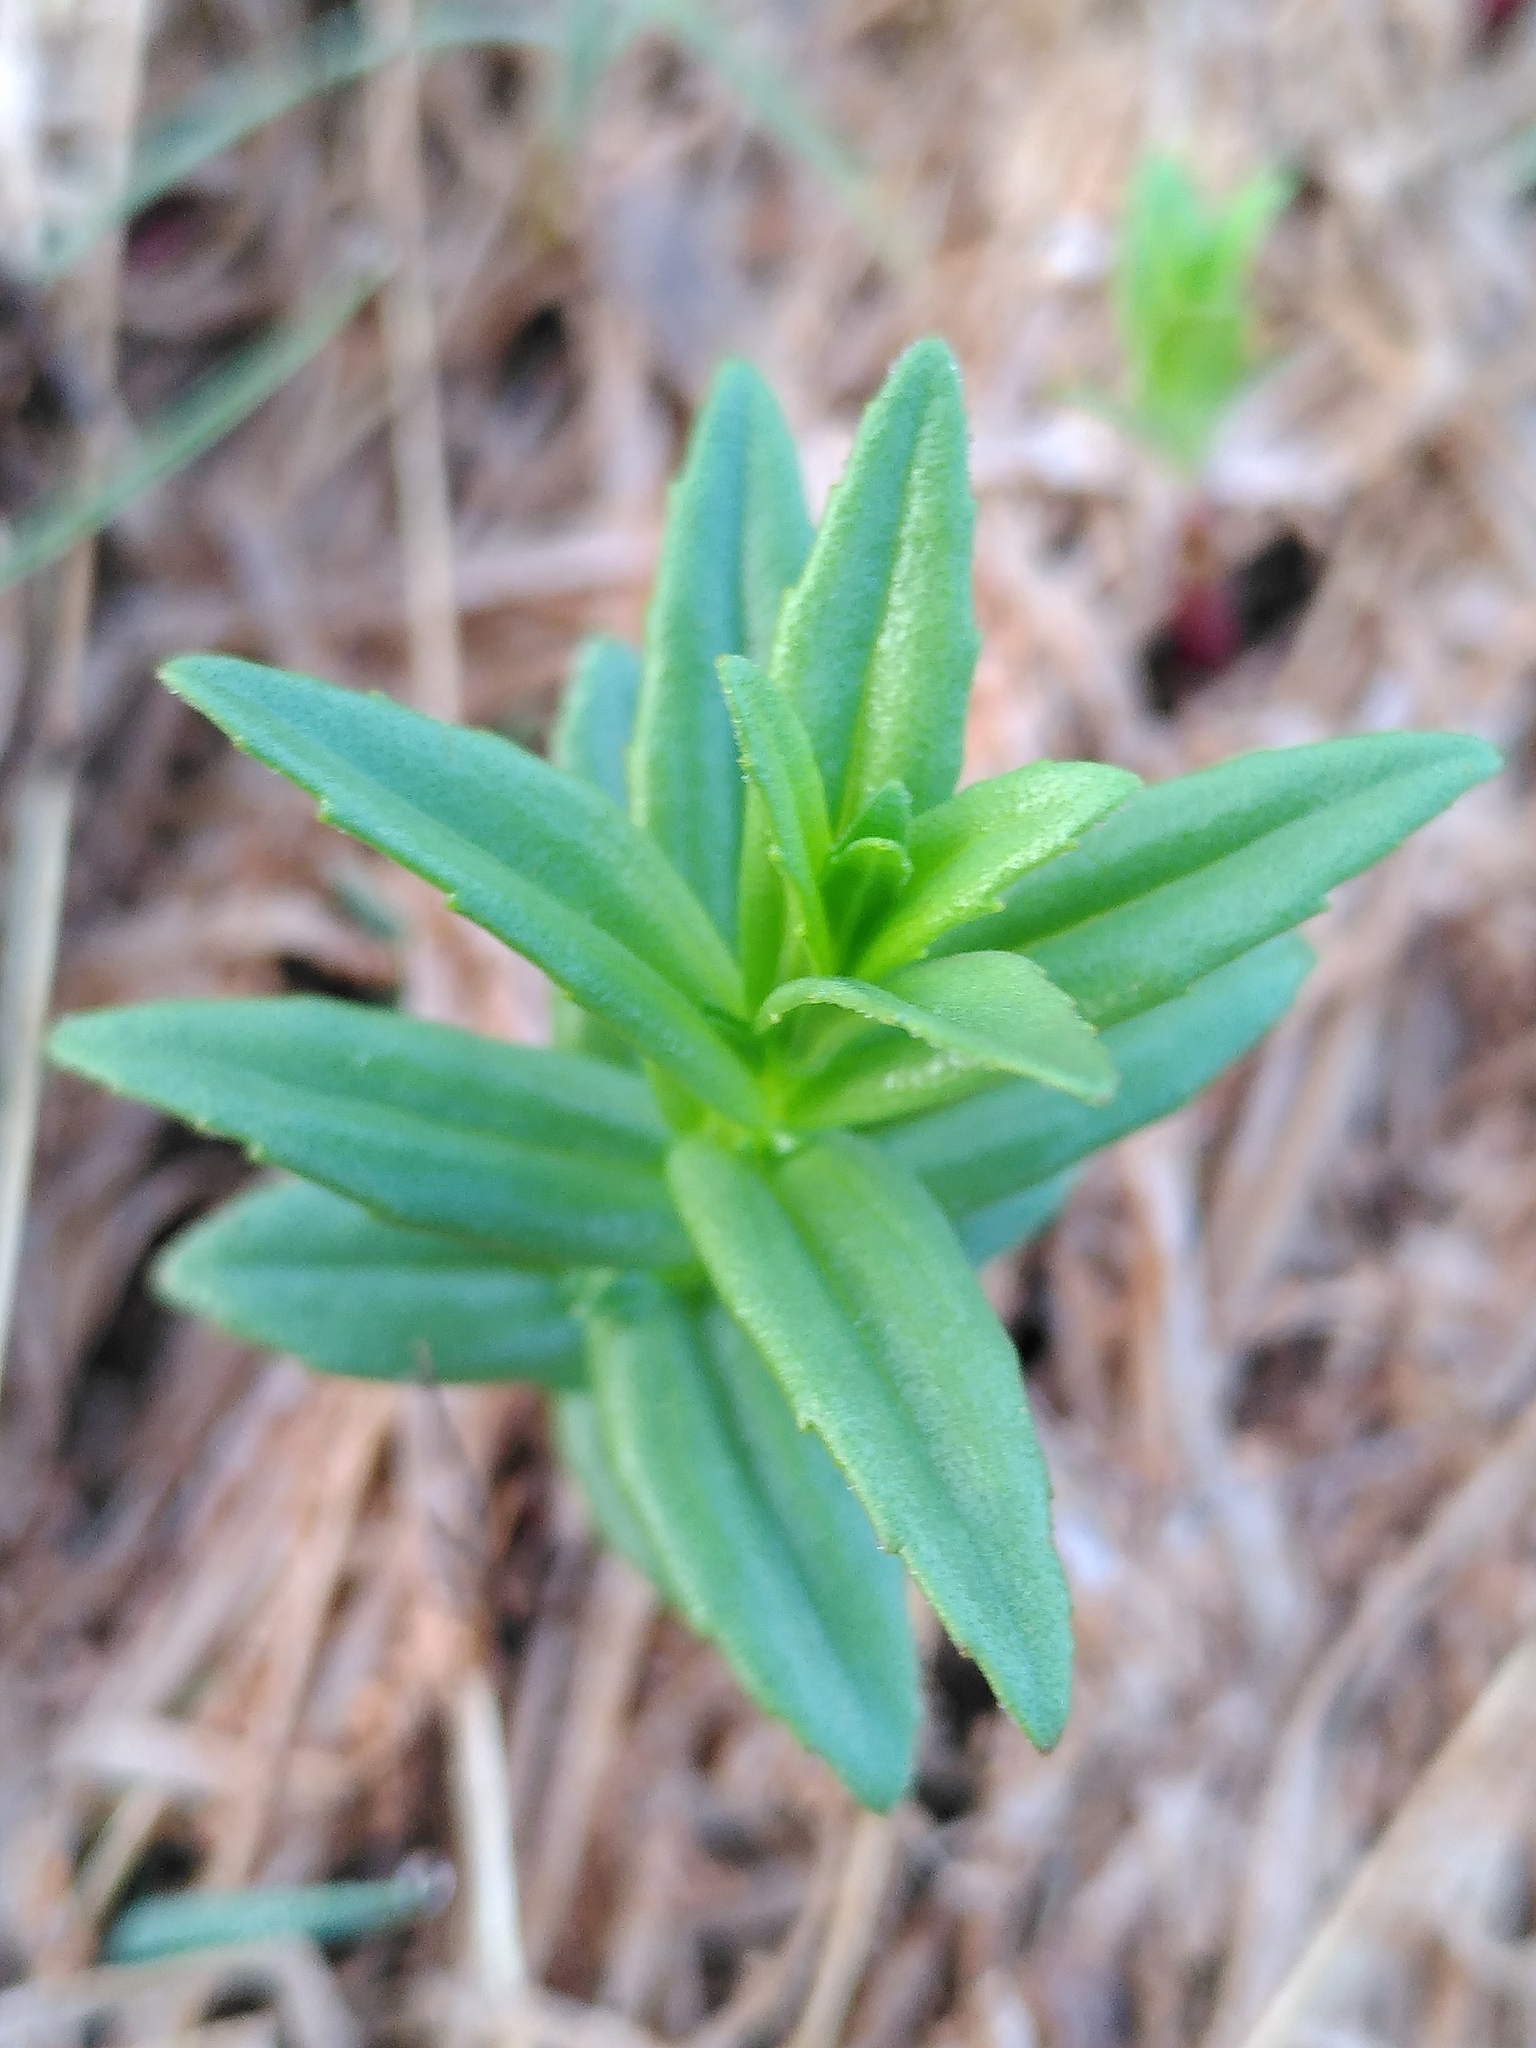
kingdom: Plantae
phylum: Tracheophyta
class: Magnoliopsida
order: Lamiales
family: Plantaginaceae
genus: Gratiola
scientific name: Gratiola officinalis
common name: Gratiola
